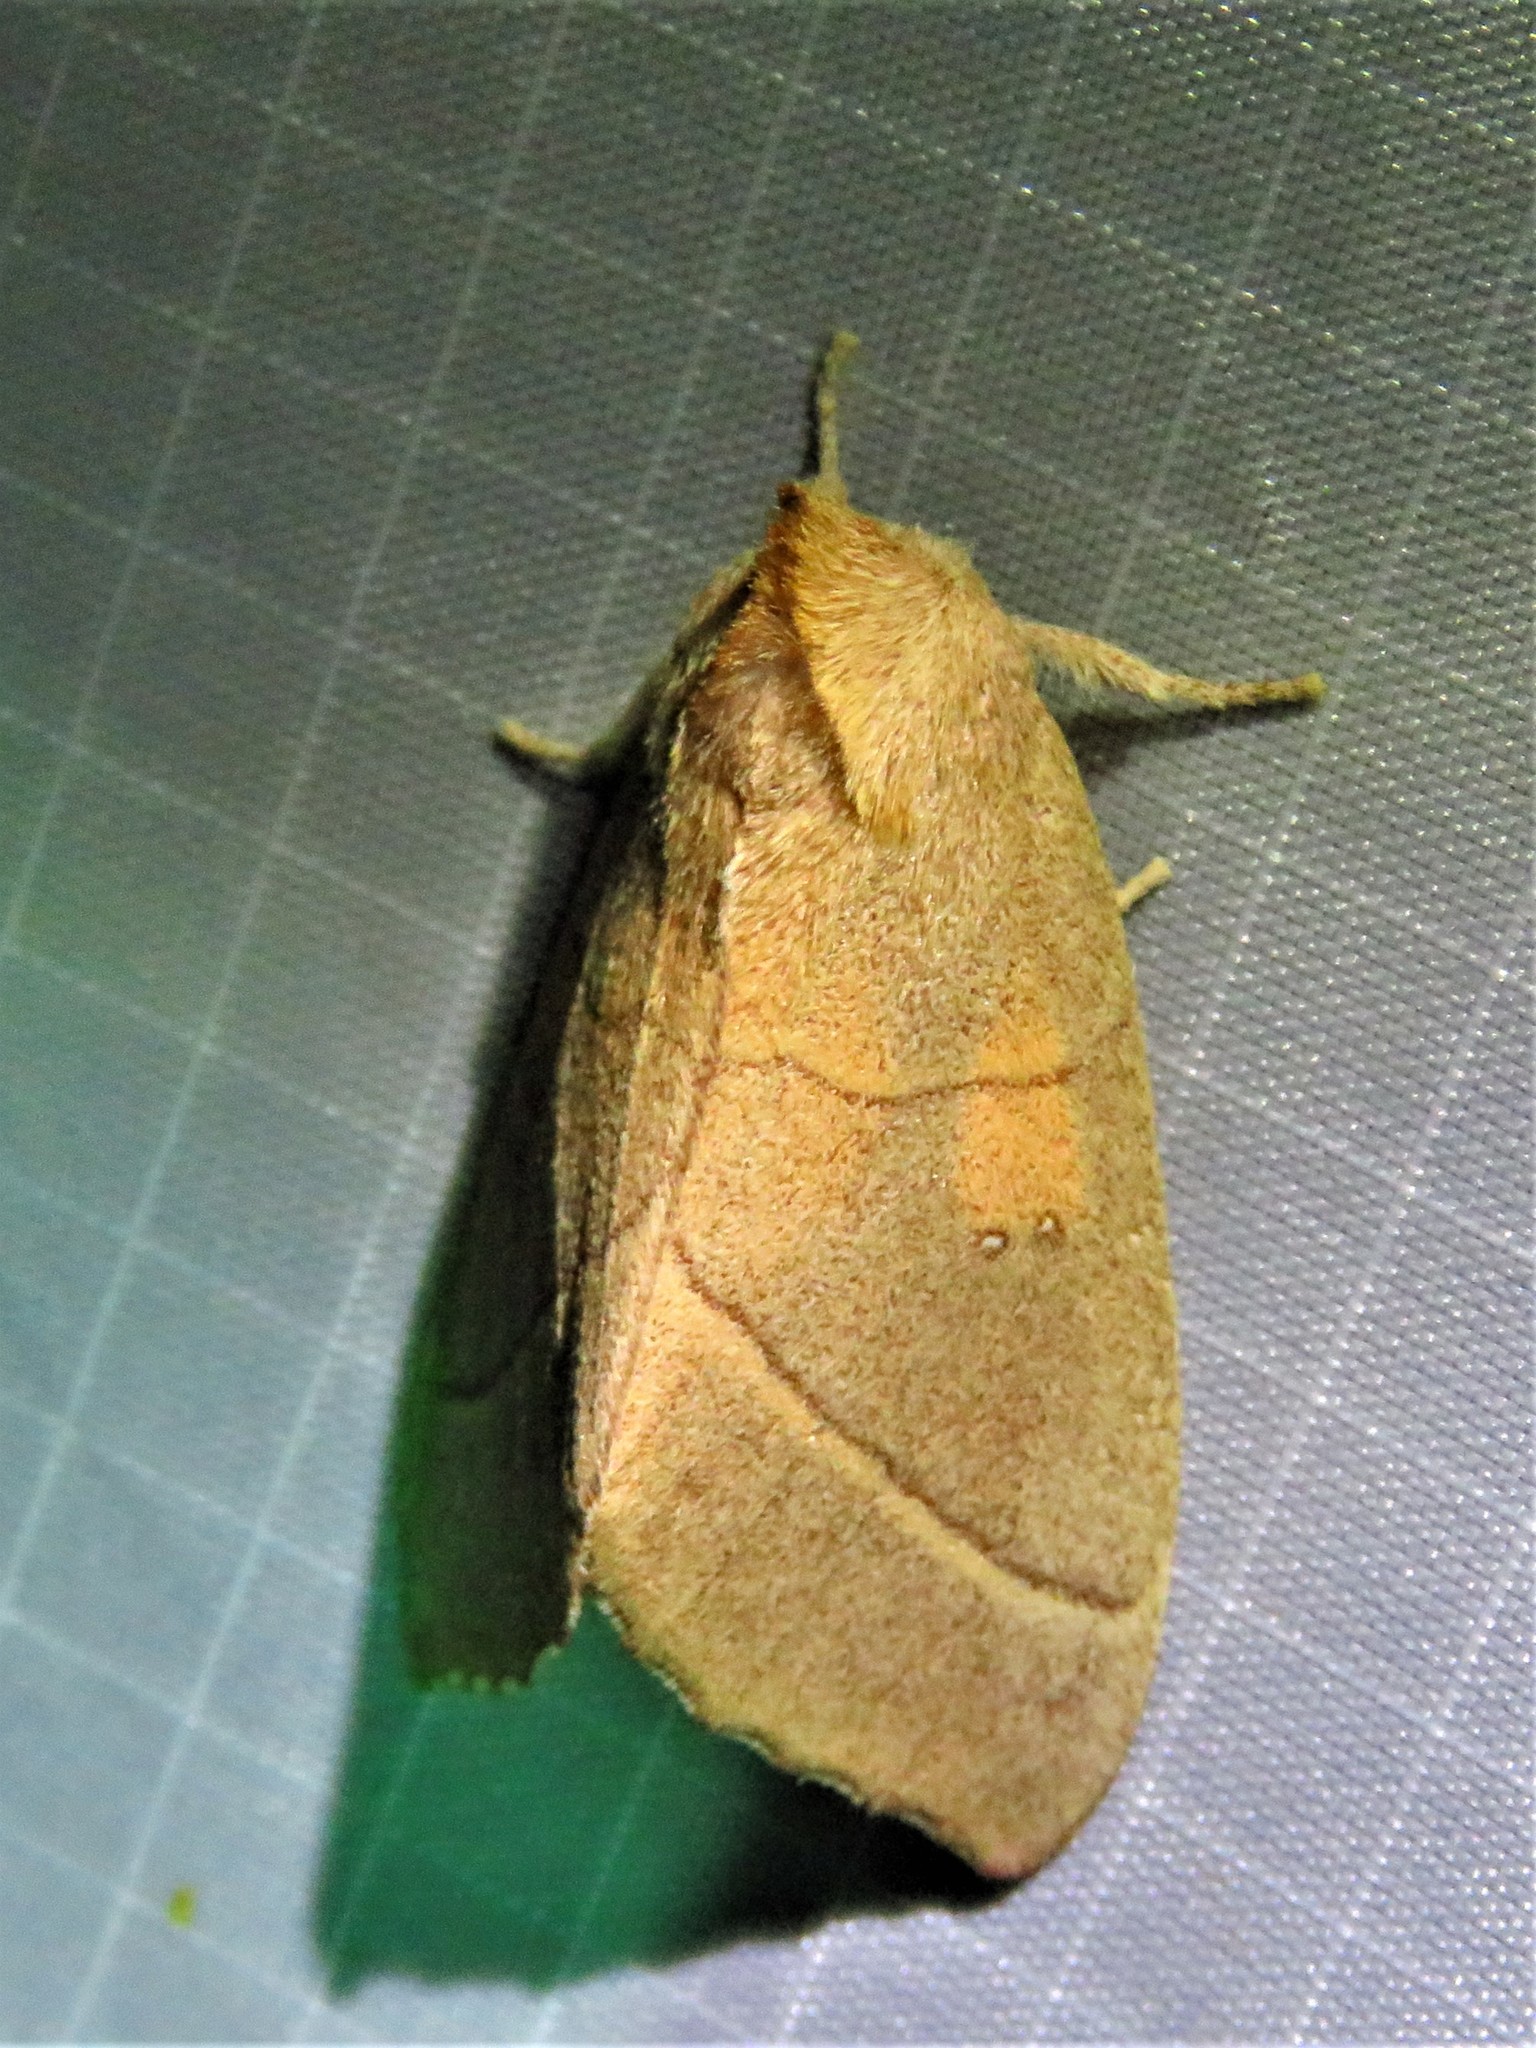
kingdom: Animalia
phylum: Arthropoda
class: Insecta
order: Lepidoptera
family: Notodontidae
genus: Nadata
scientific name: Nadata gibbosa
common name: White-dotted prominent
